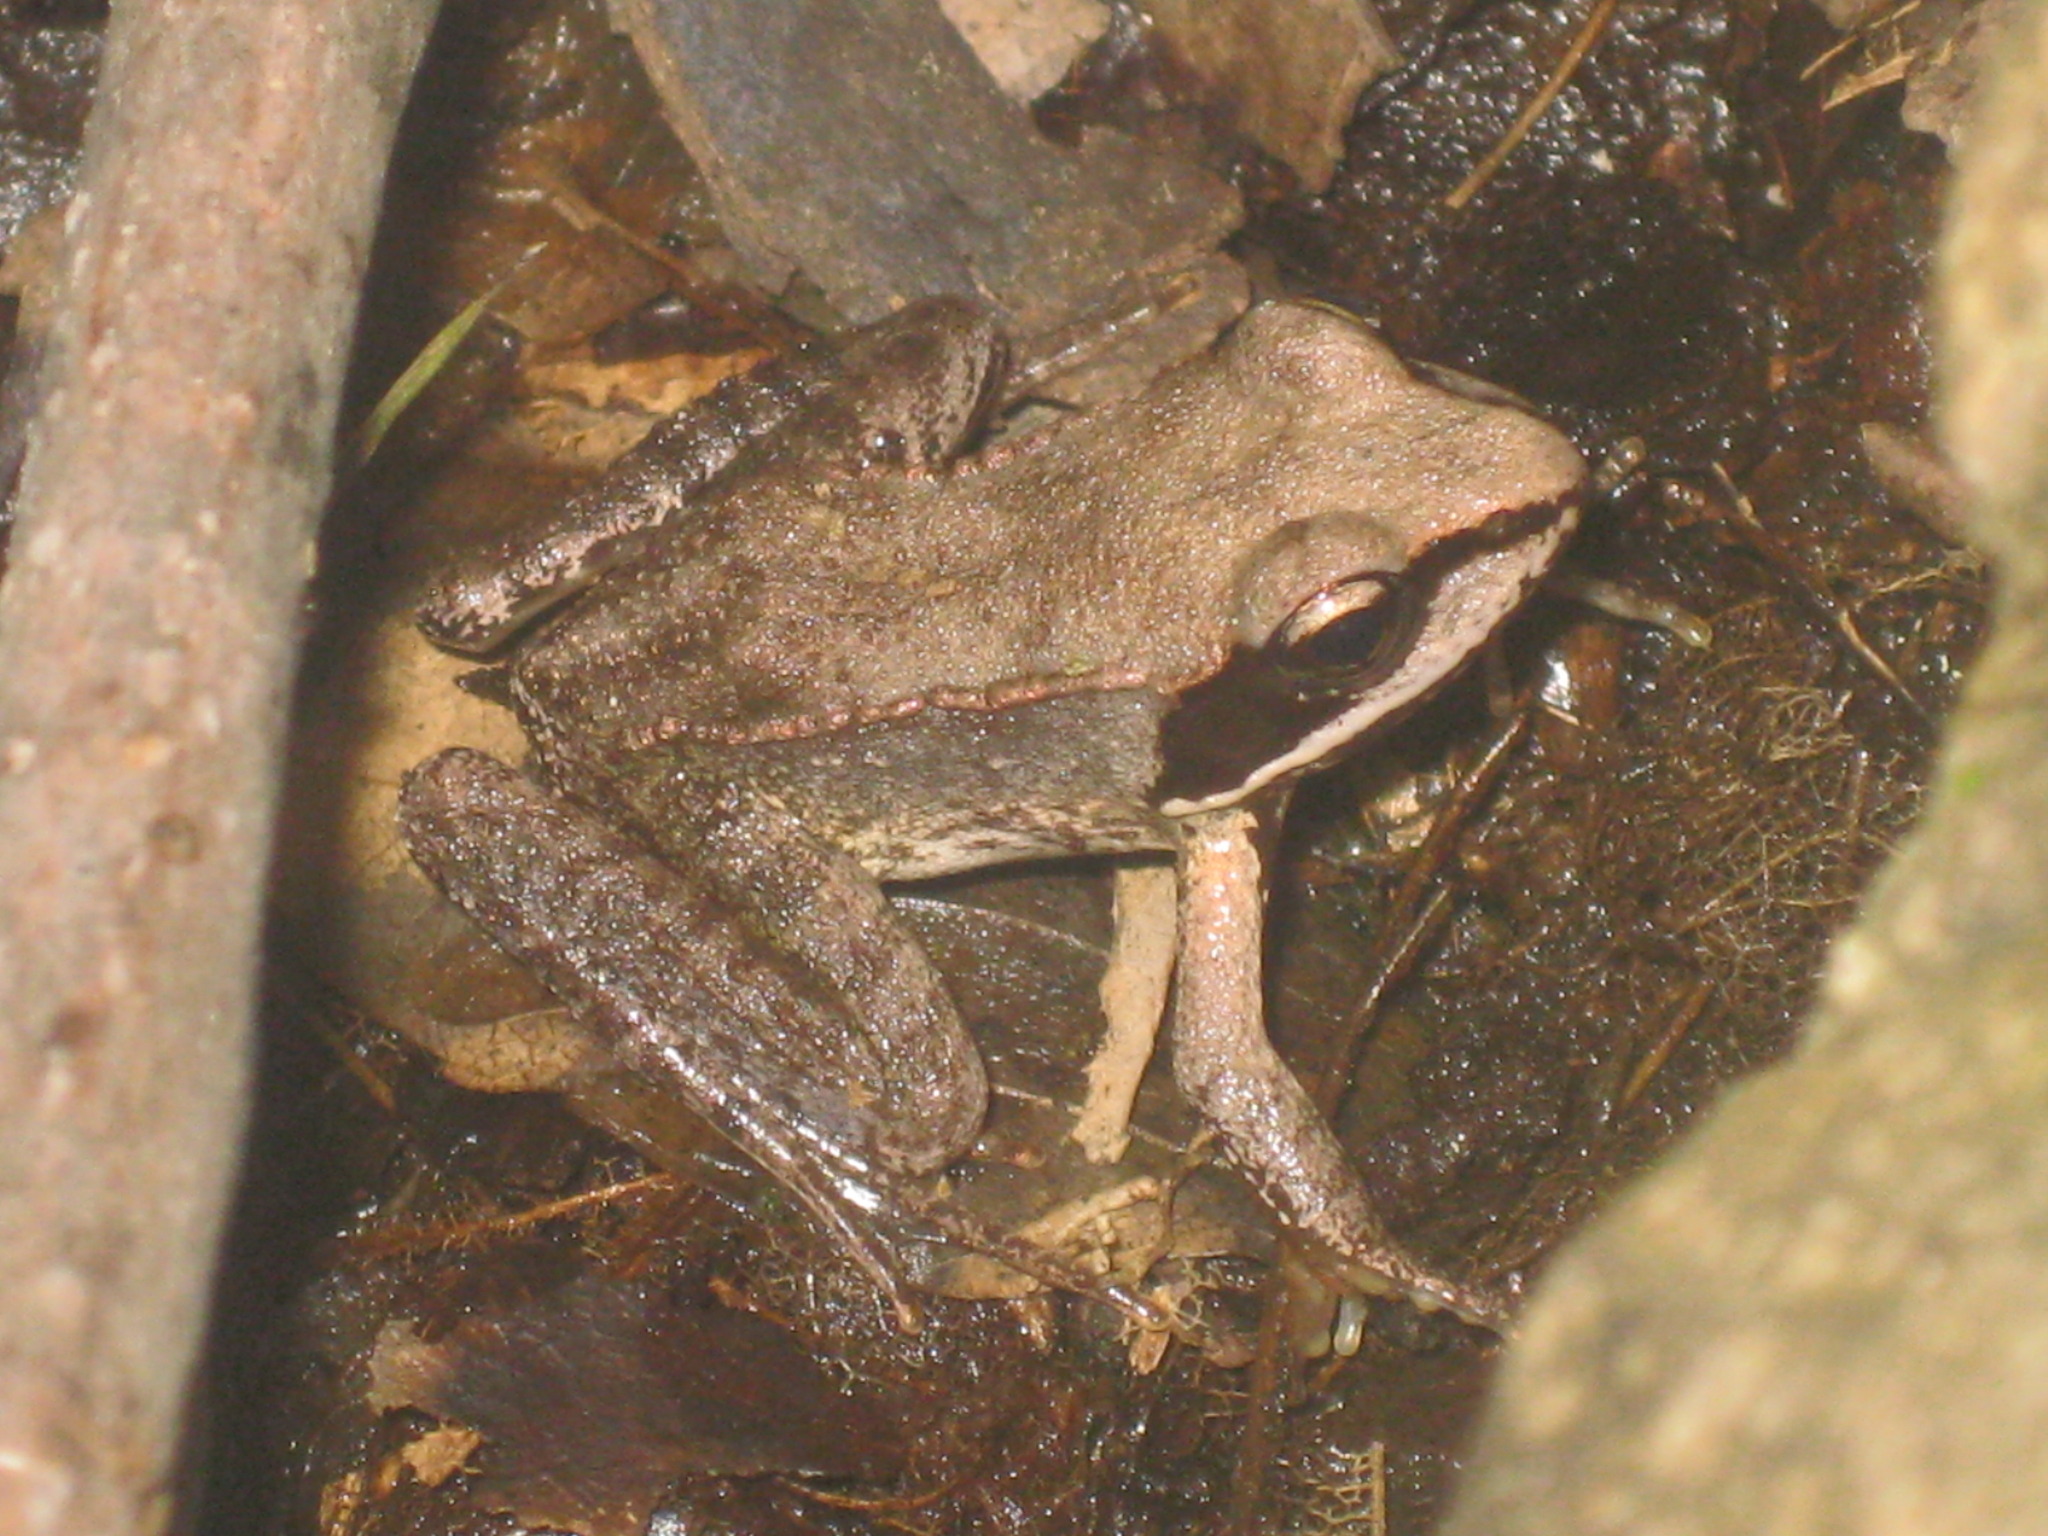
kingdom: Animalia
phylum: Chordata
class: Amphibia
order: Anura
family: Ranidae
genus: Lithobates
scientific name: Lithobates sylvaticus
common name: Wood frog
